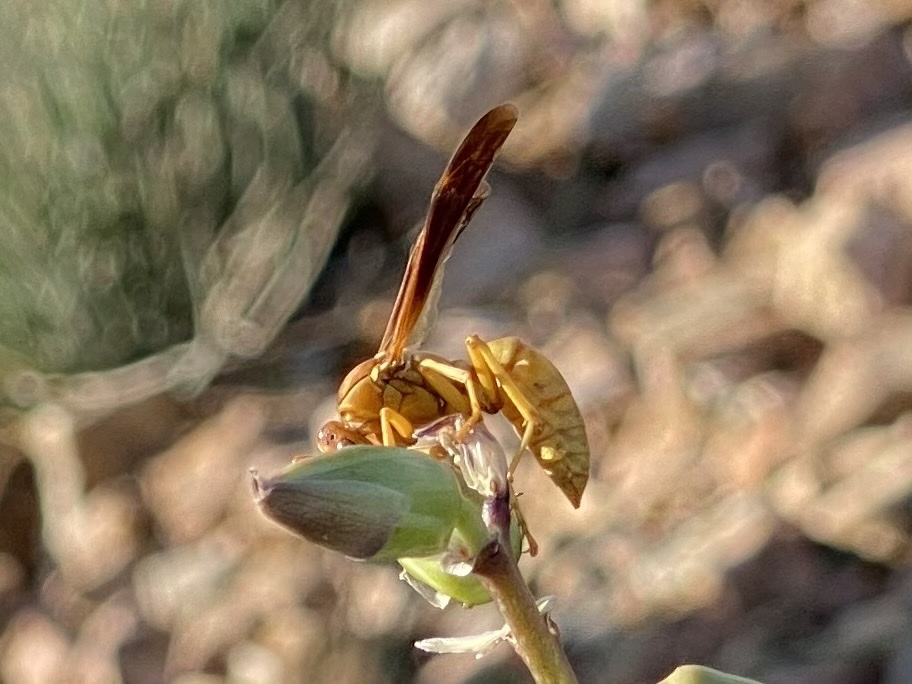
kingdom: Animalia
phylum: Arthropoda
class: Insecta
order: Hymenoptera
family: Eumenidae
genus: Polistes
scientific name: Polistes flavus
